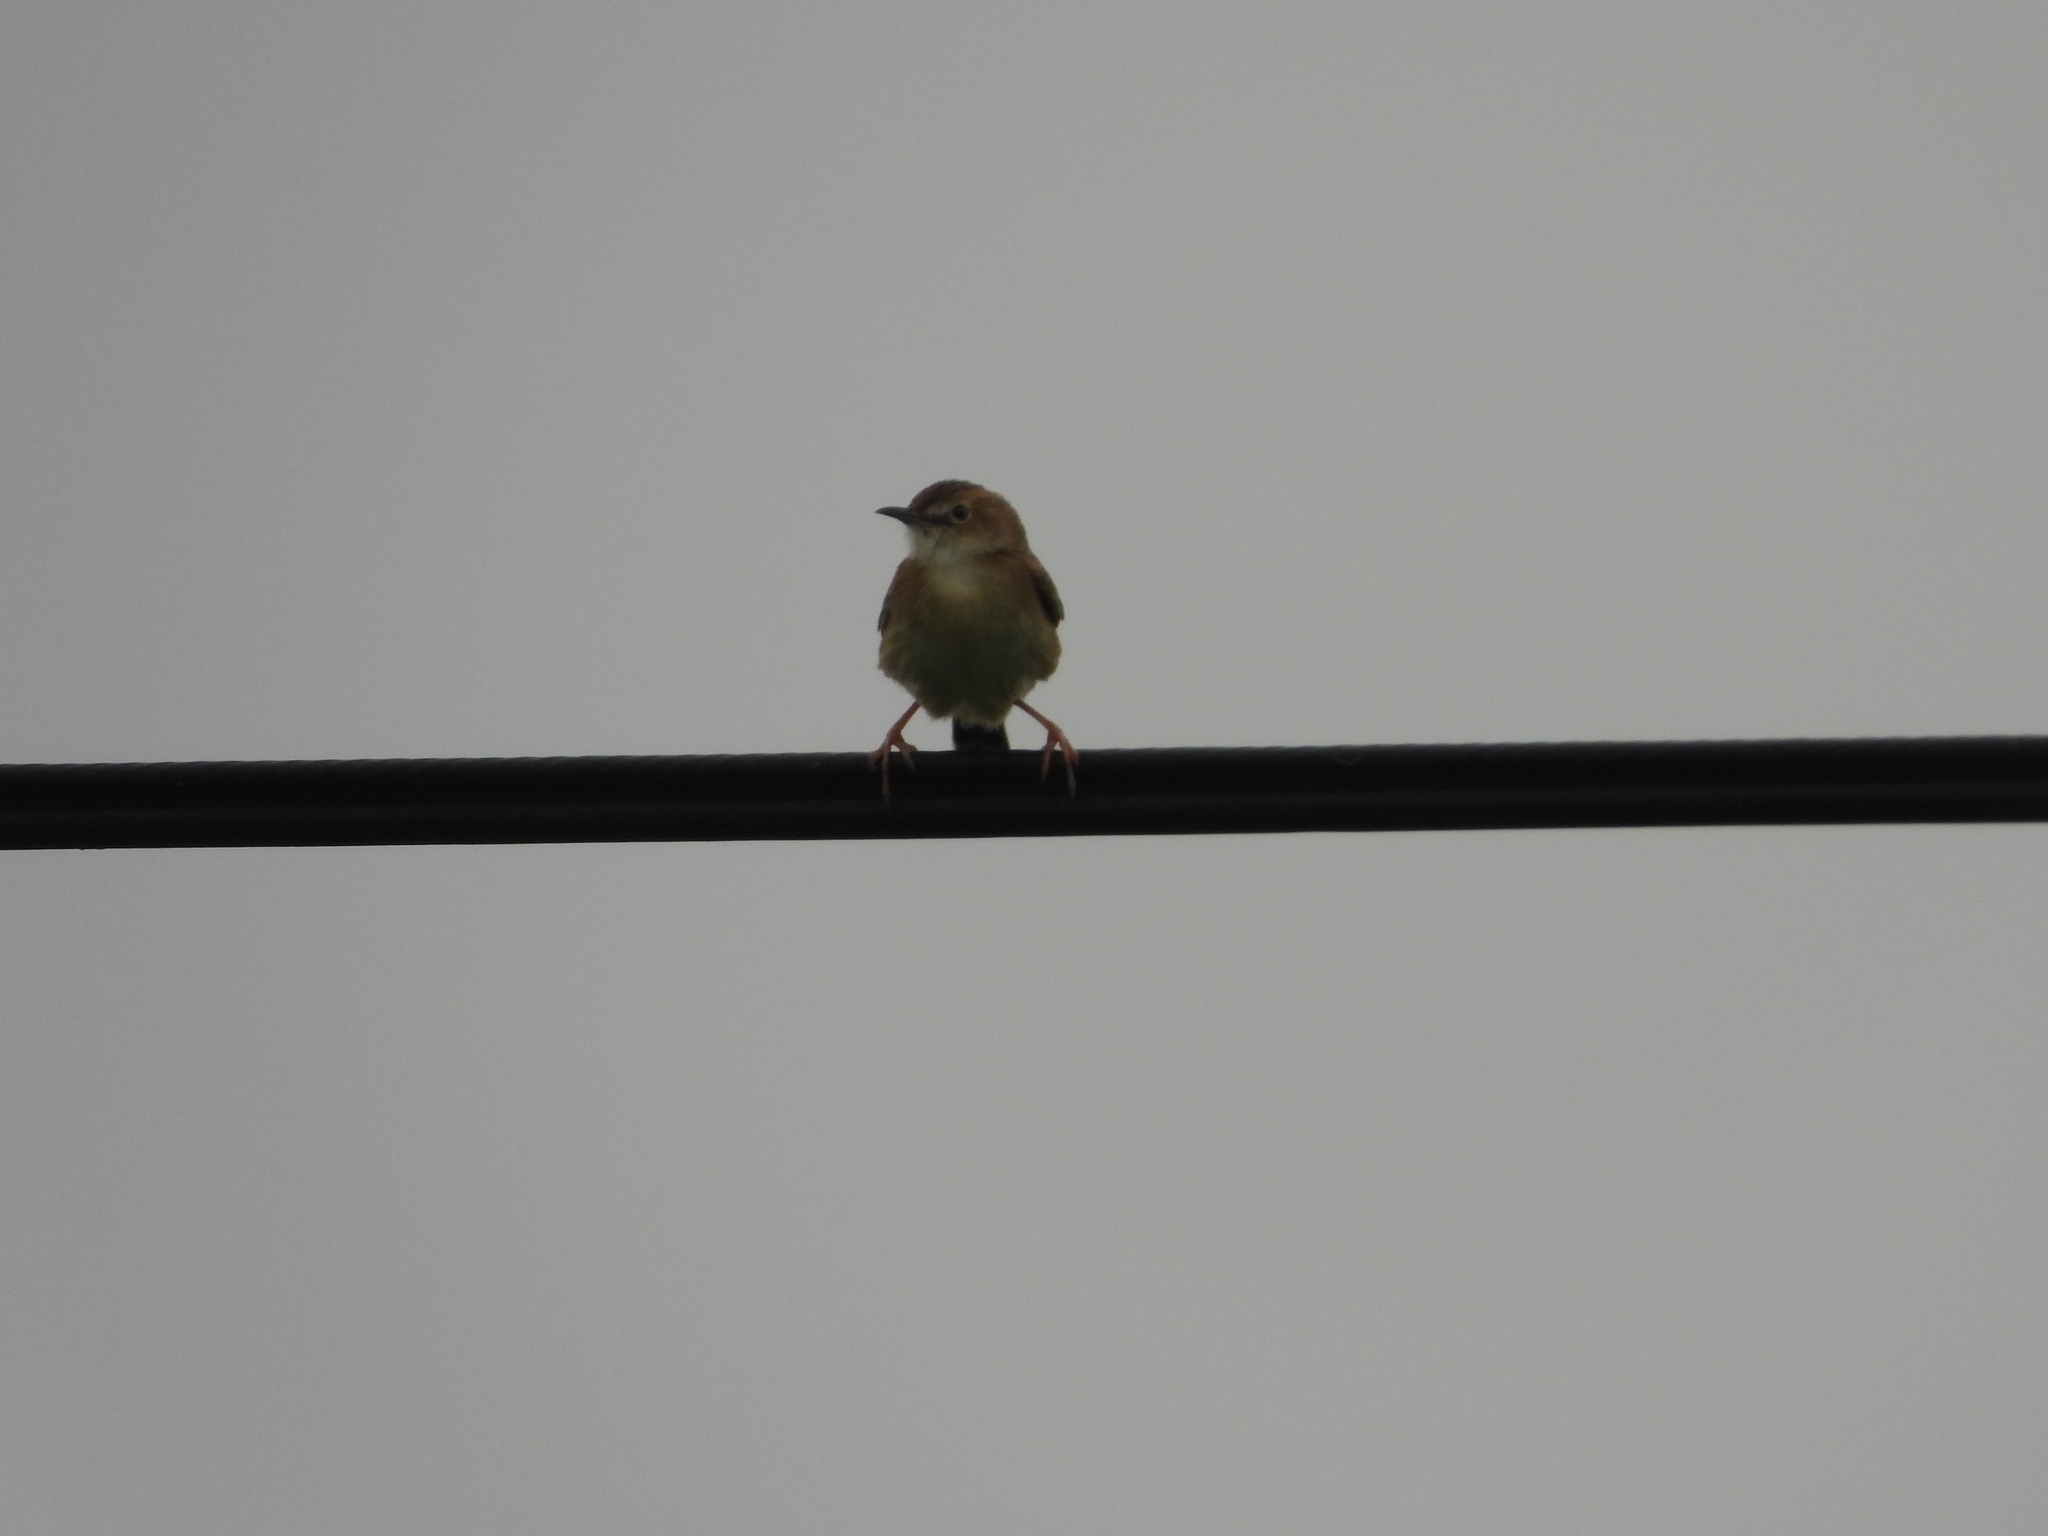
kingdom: Animalia
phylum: Chordata
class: Aves
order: Passeriformes
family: Cisticolidae
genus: Cisticola
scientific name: Cisticola juncidis
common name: Zitting cisticola
